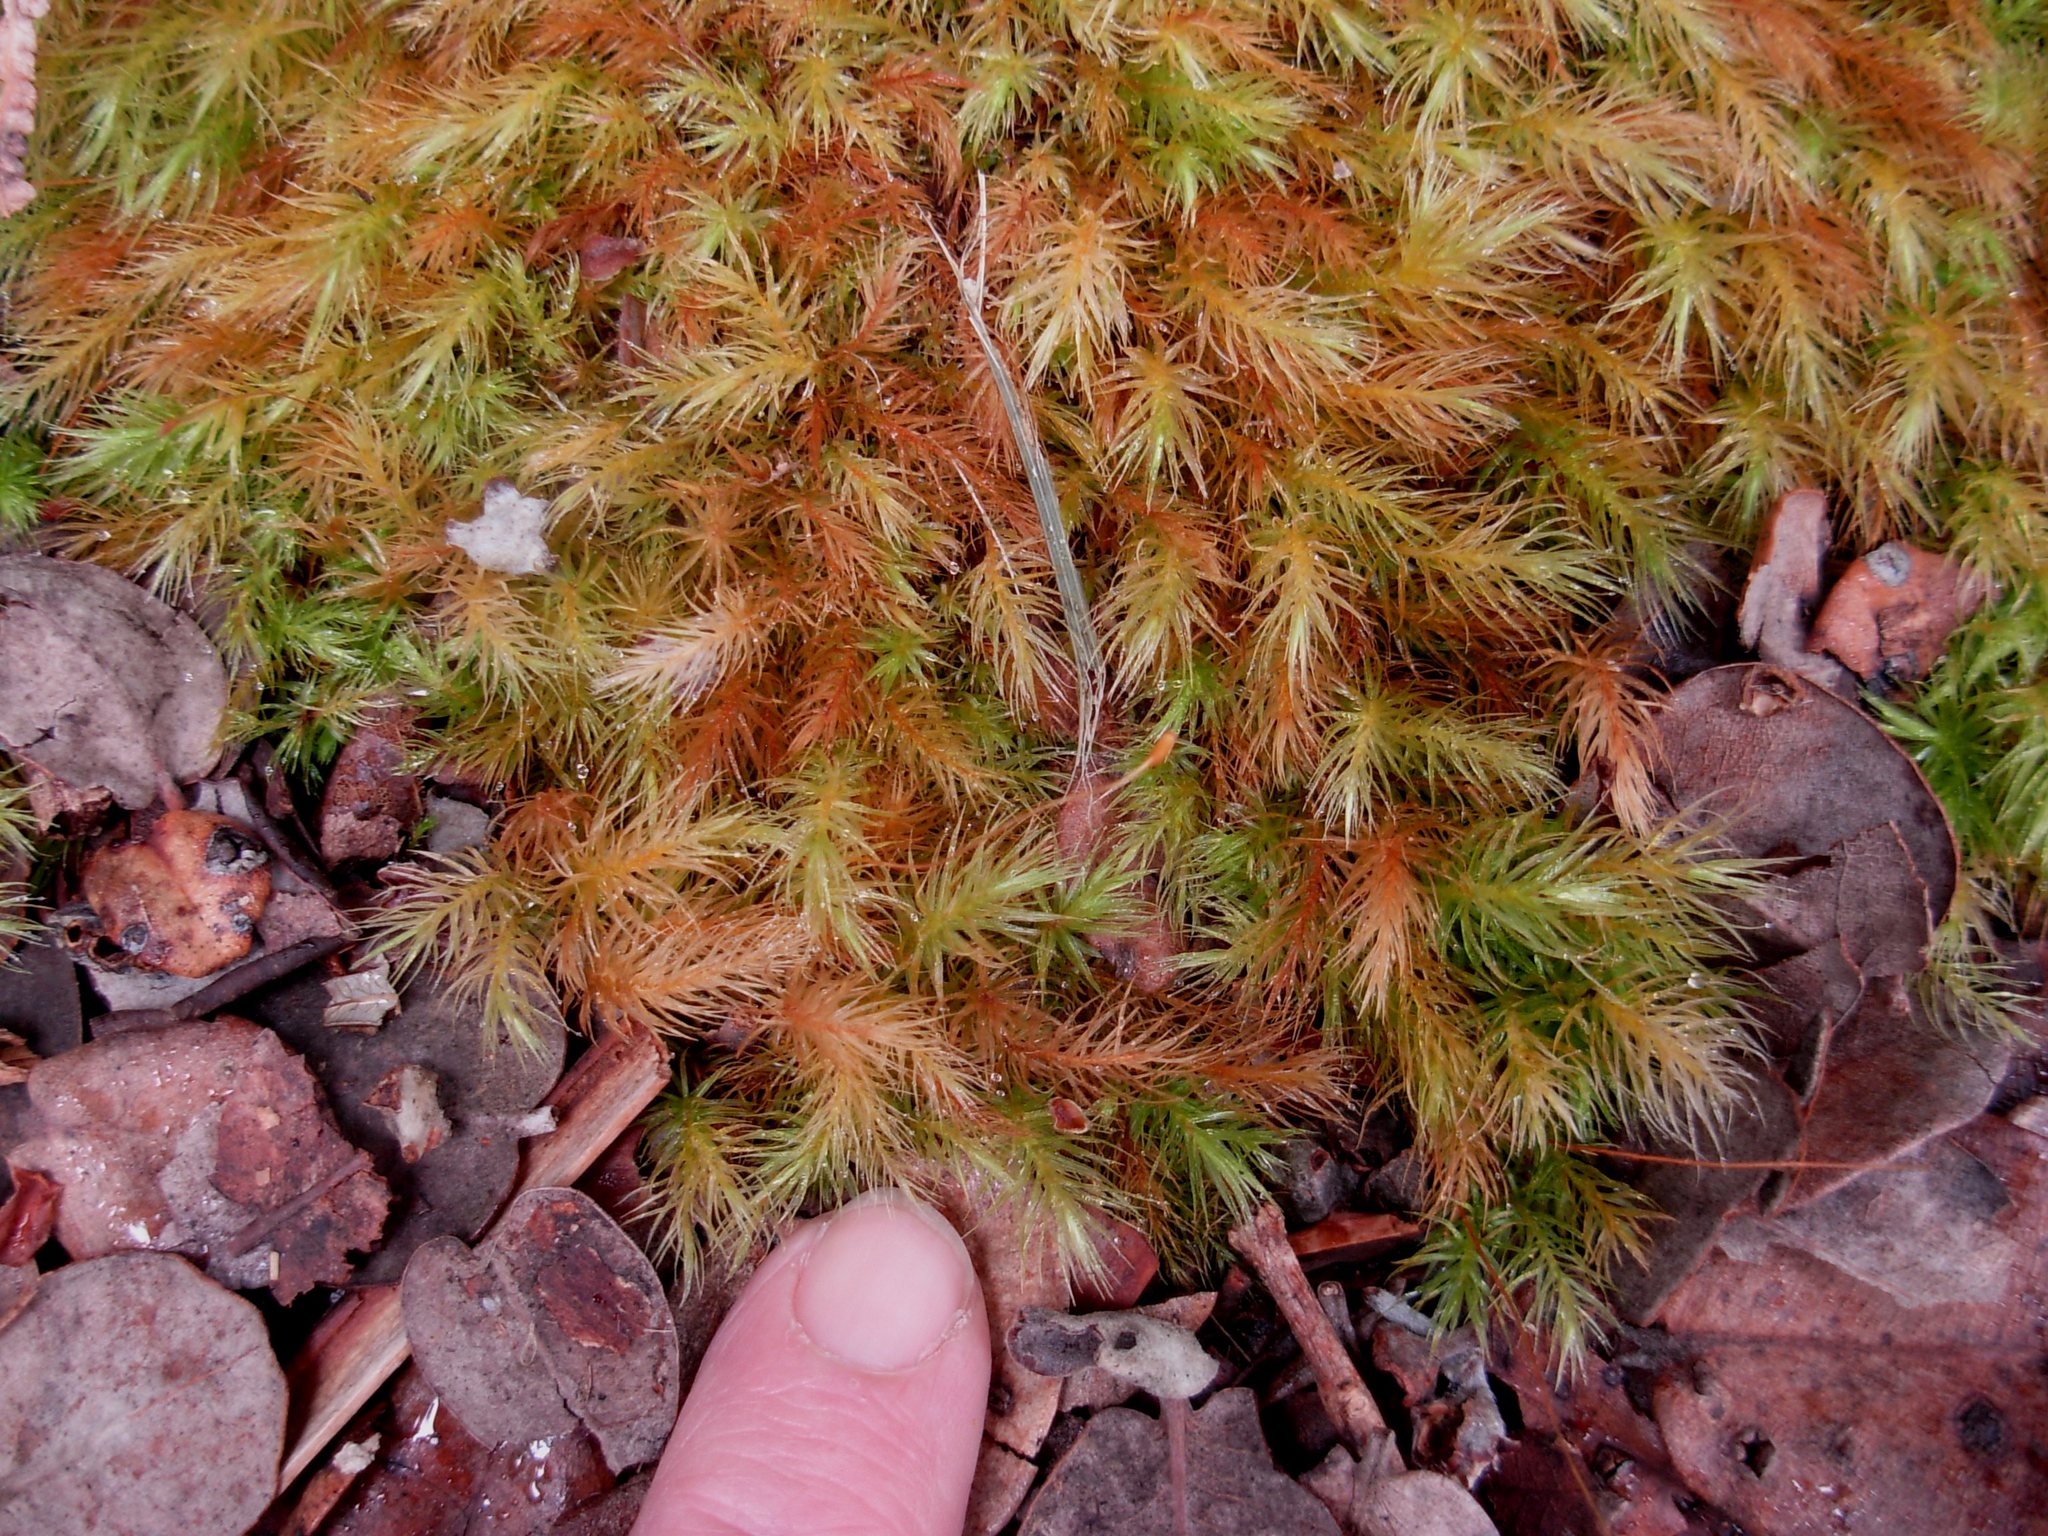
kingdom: Plantae
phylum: Bryophyta
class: Bryopsida
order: Rhizogoniales
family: Calomniaceae
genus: Pyrrhobryum
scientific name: Pyrrhobryum spiniforme
